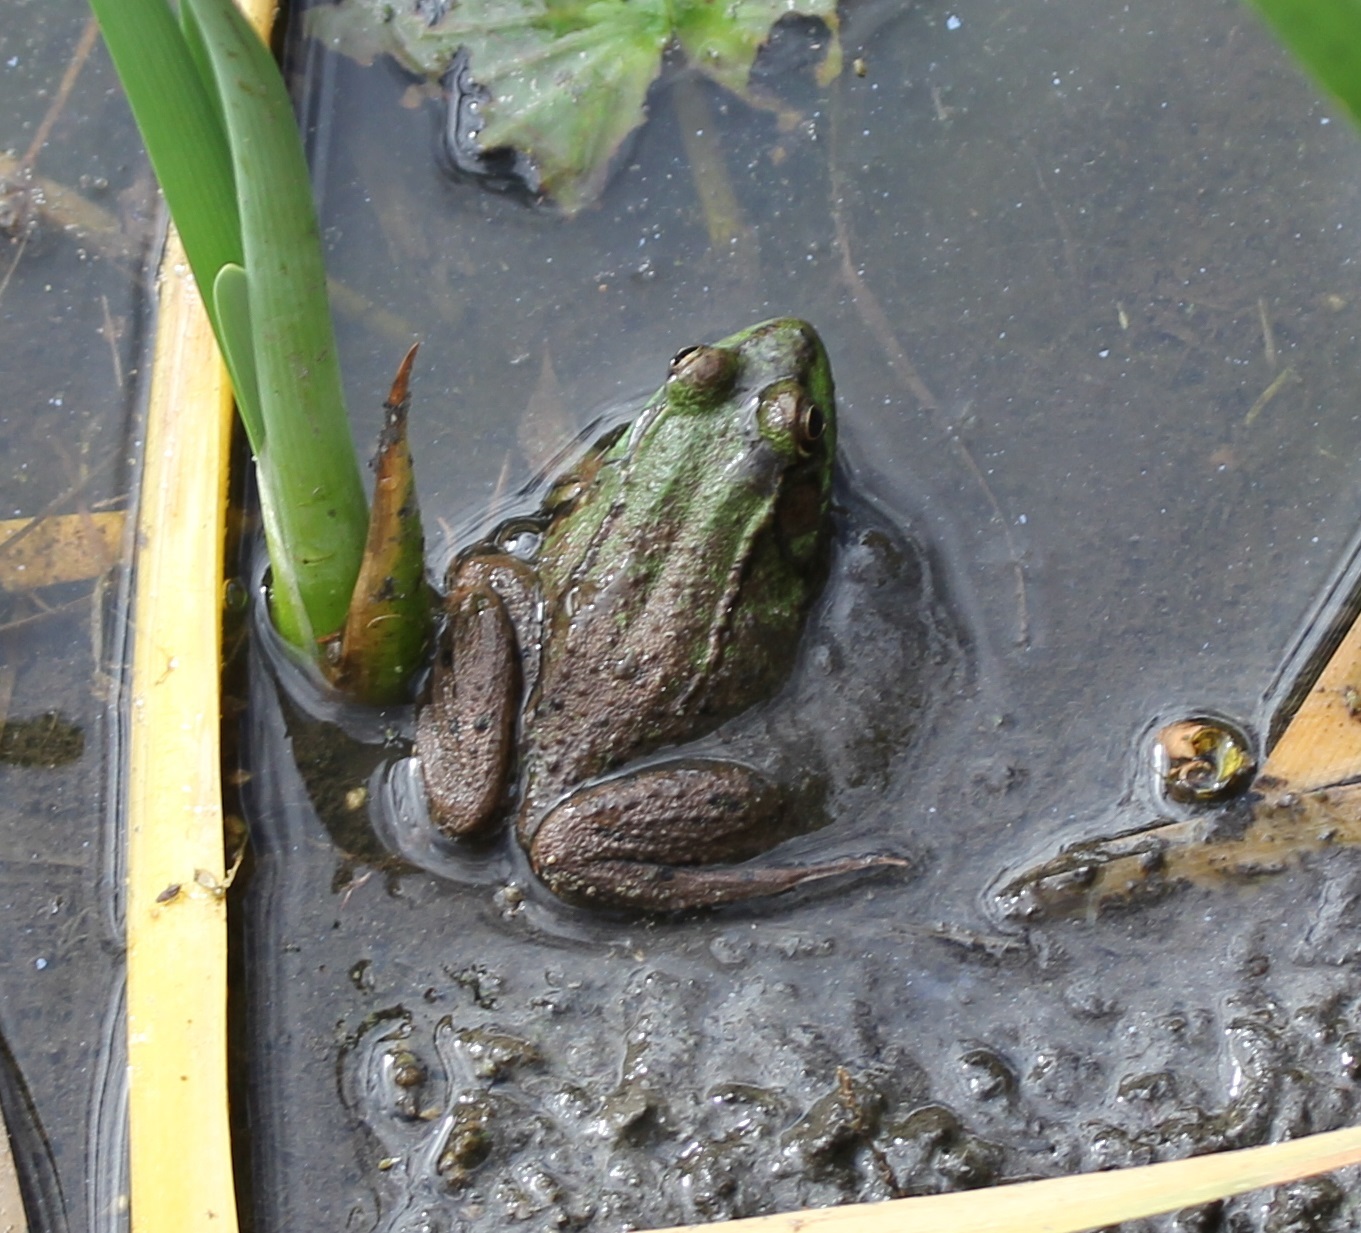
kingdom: Animalia
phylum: Chordata
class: Amphibia
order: Anura
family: Ranidae
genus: Lithobates
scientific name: Lithobates clamitans
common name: Green frog
